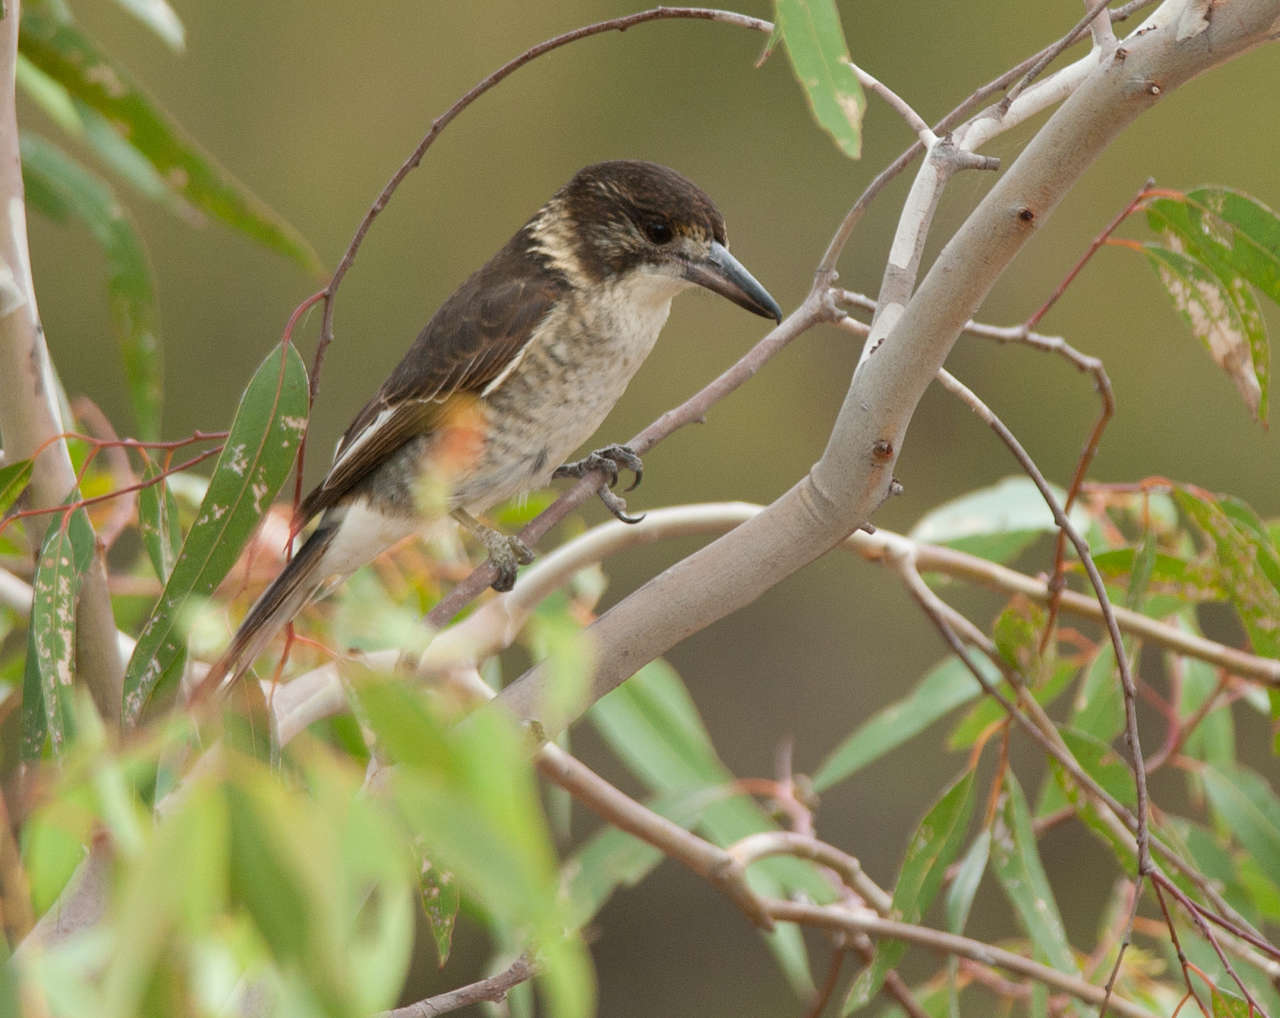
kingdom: Animalia
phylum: Chordata
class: Aves
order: Passeriformes
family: Cracticidae
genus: Cracticus
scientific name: Cracticus torquatus
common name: Grey butcherbird
